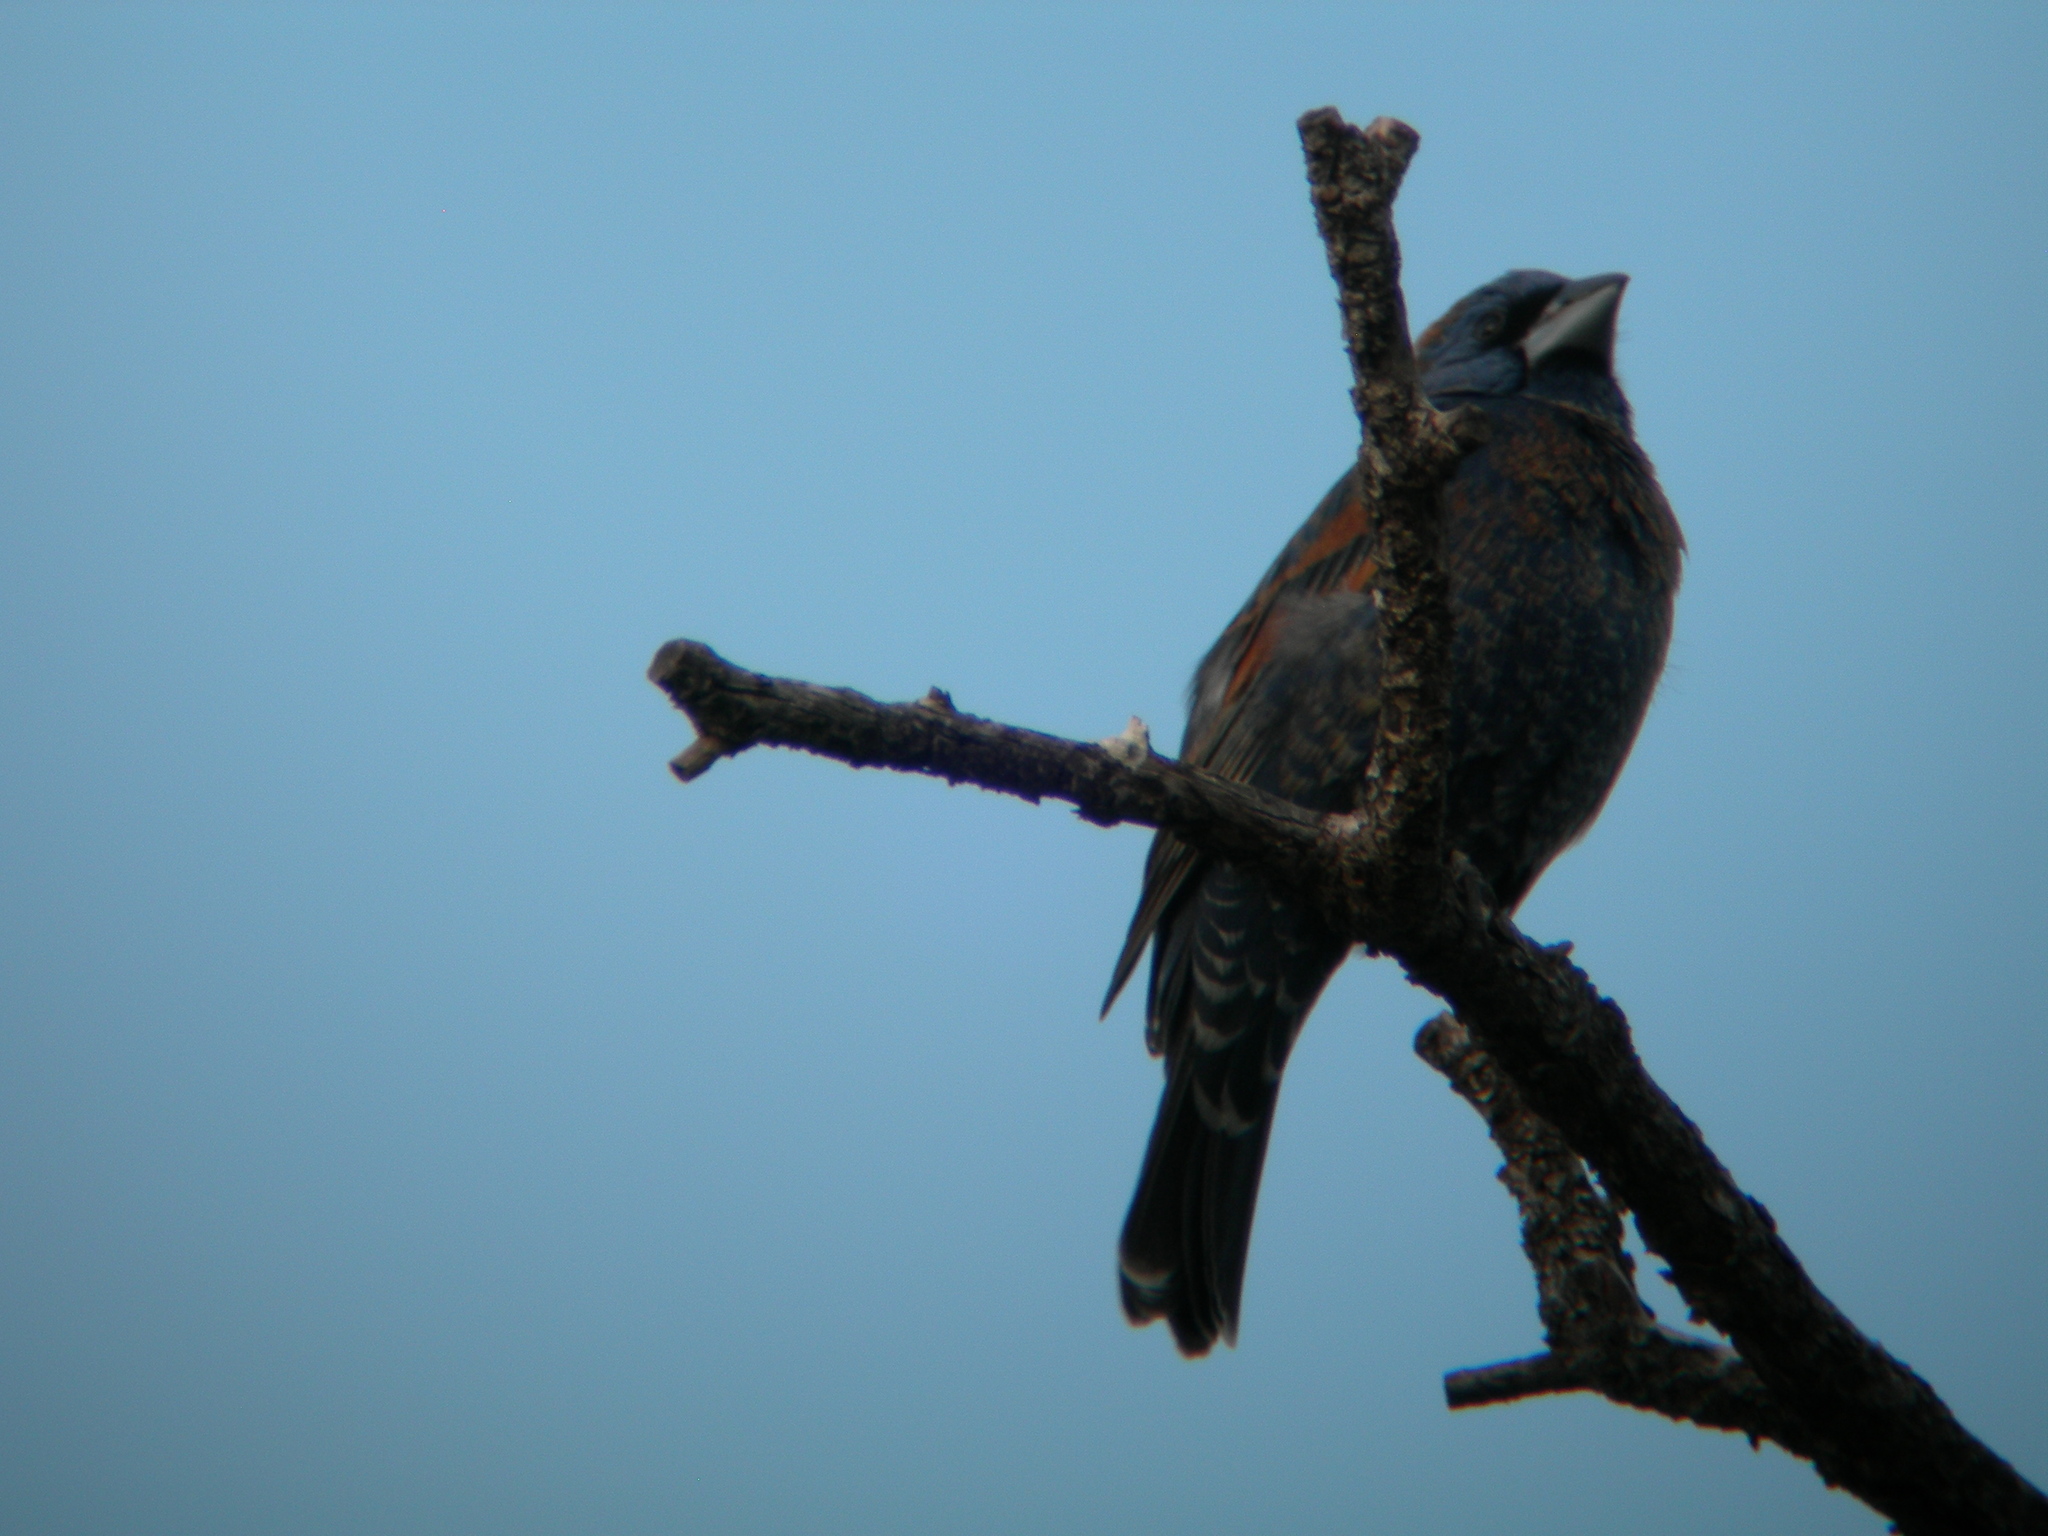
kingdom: Animalia
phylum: Chordata
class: Aves
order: Passeriformes
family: Cardinalidae
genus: Passerina
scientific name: Passerina caerulea
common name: Blue grosbeak
